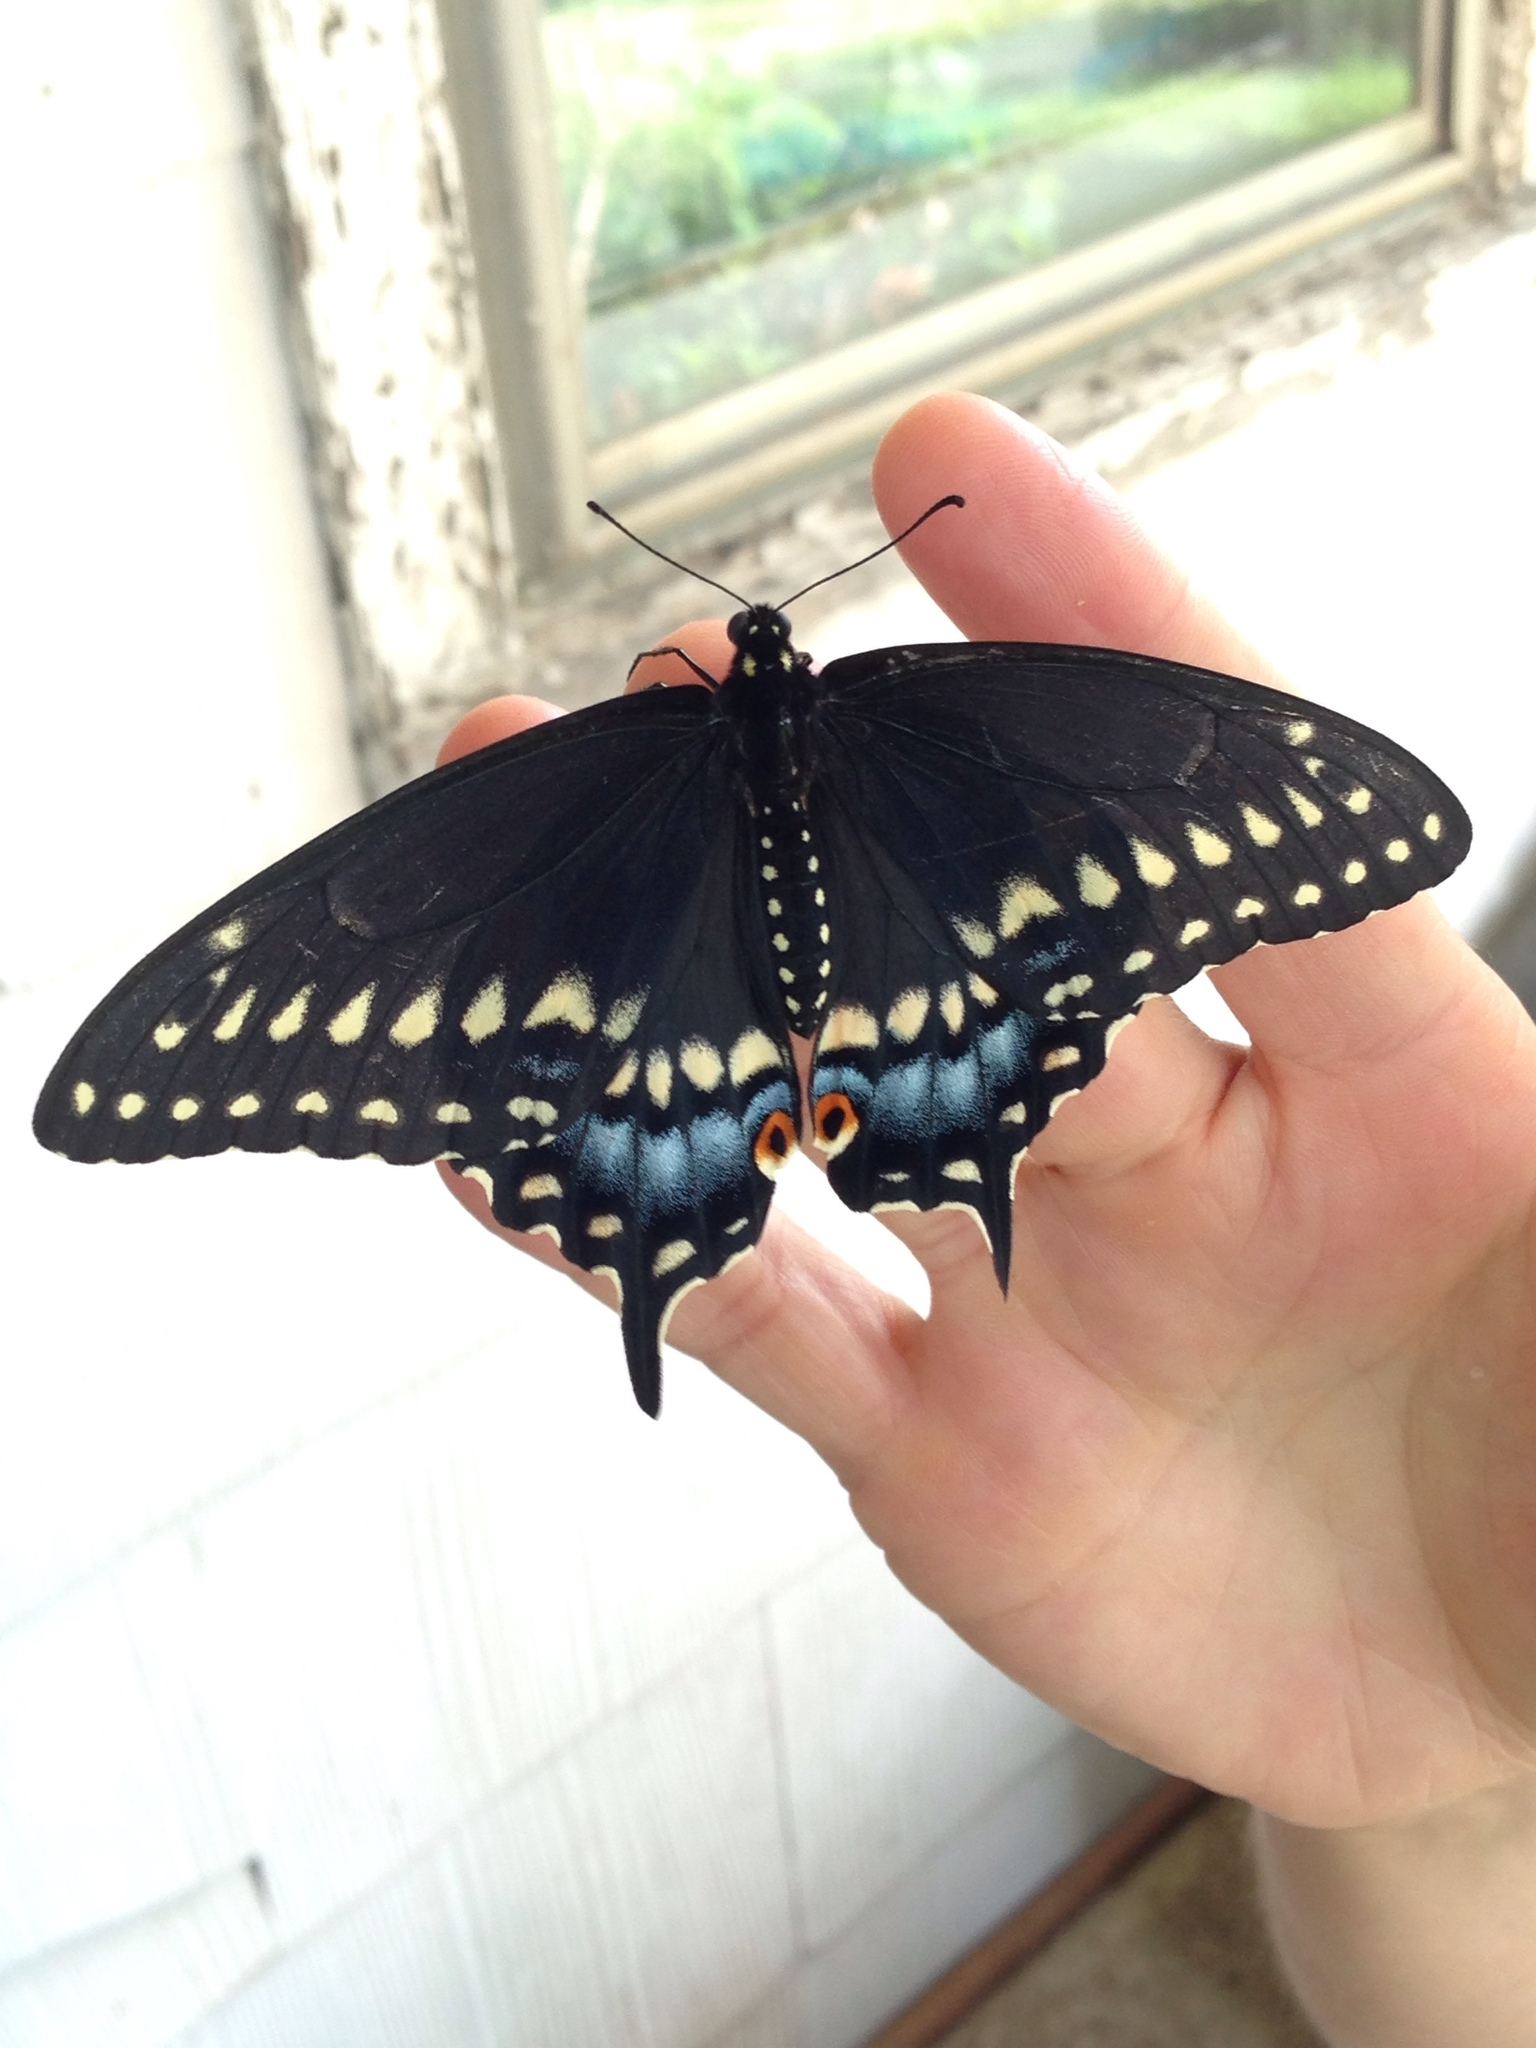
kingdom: Animalia
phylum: Arthropoda
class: Insecta
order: Lepidoptera
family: Papilionidae
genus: Papilio
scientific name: Papilio polyxenes
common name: Black swallowtail
